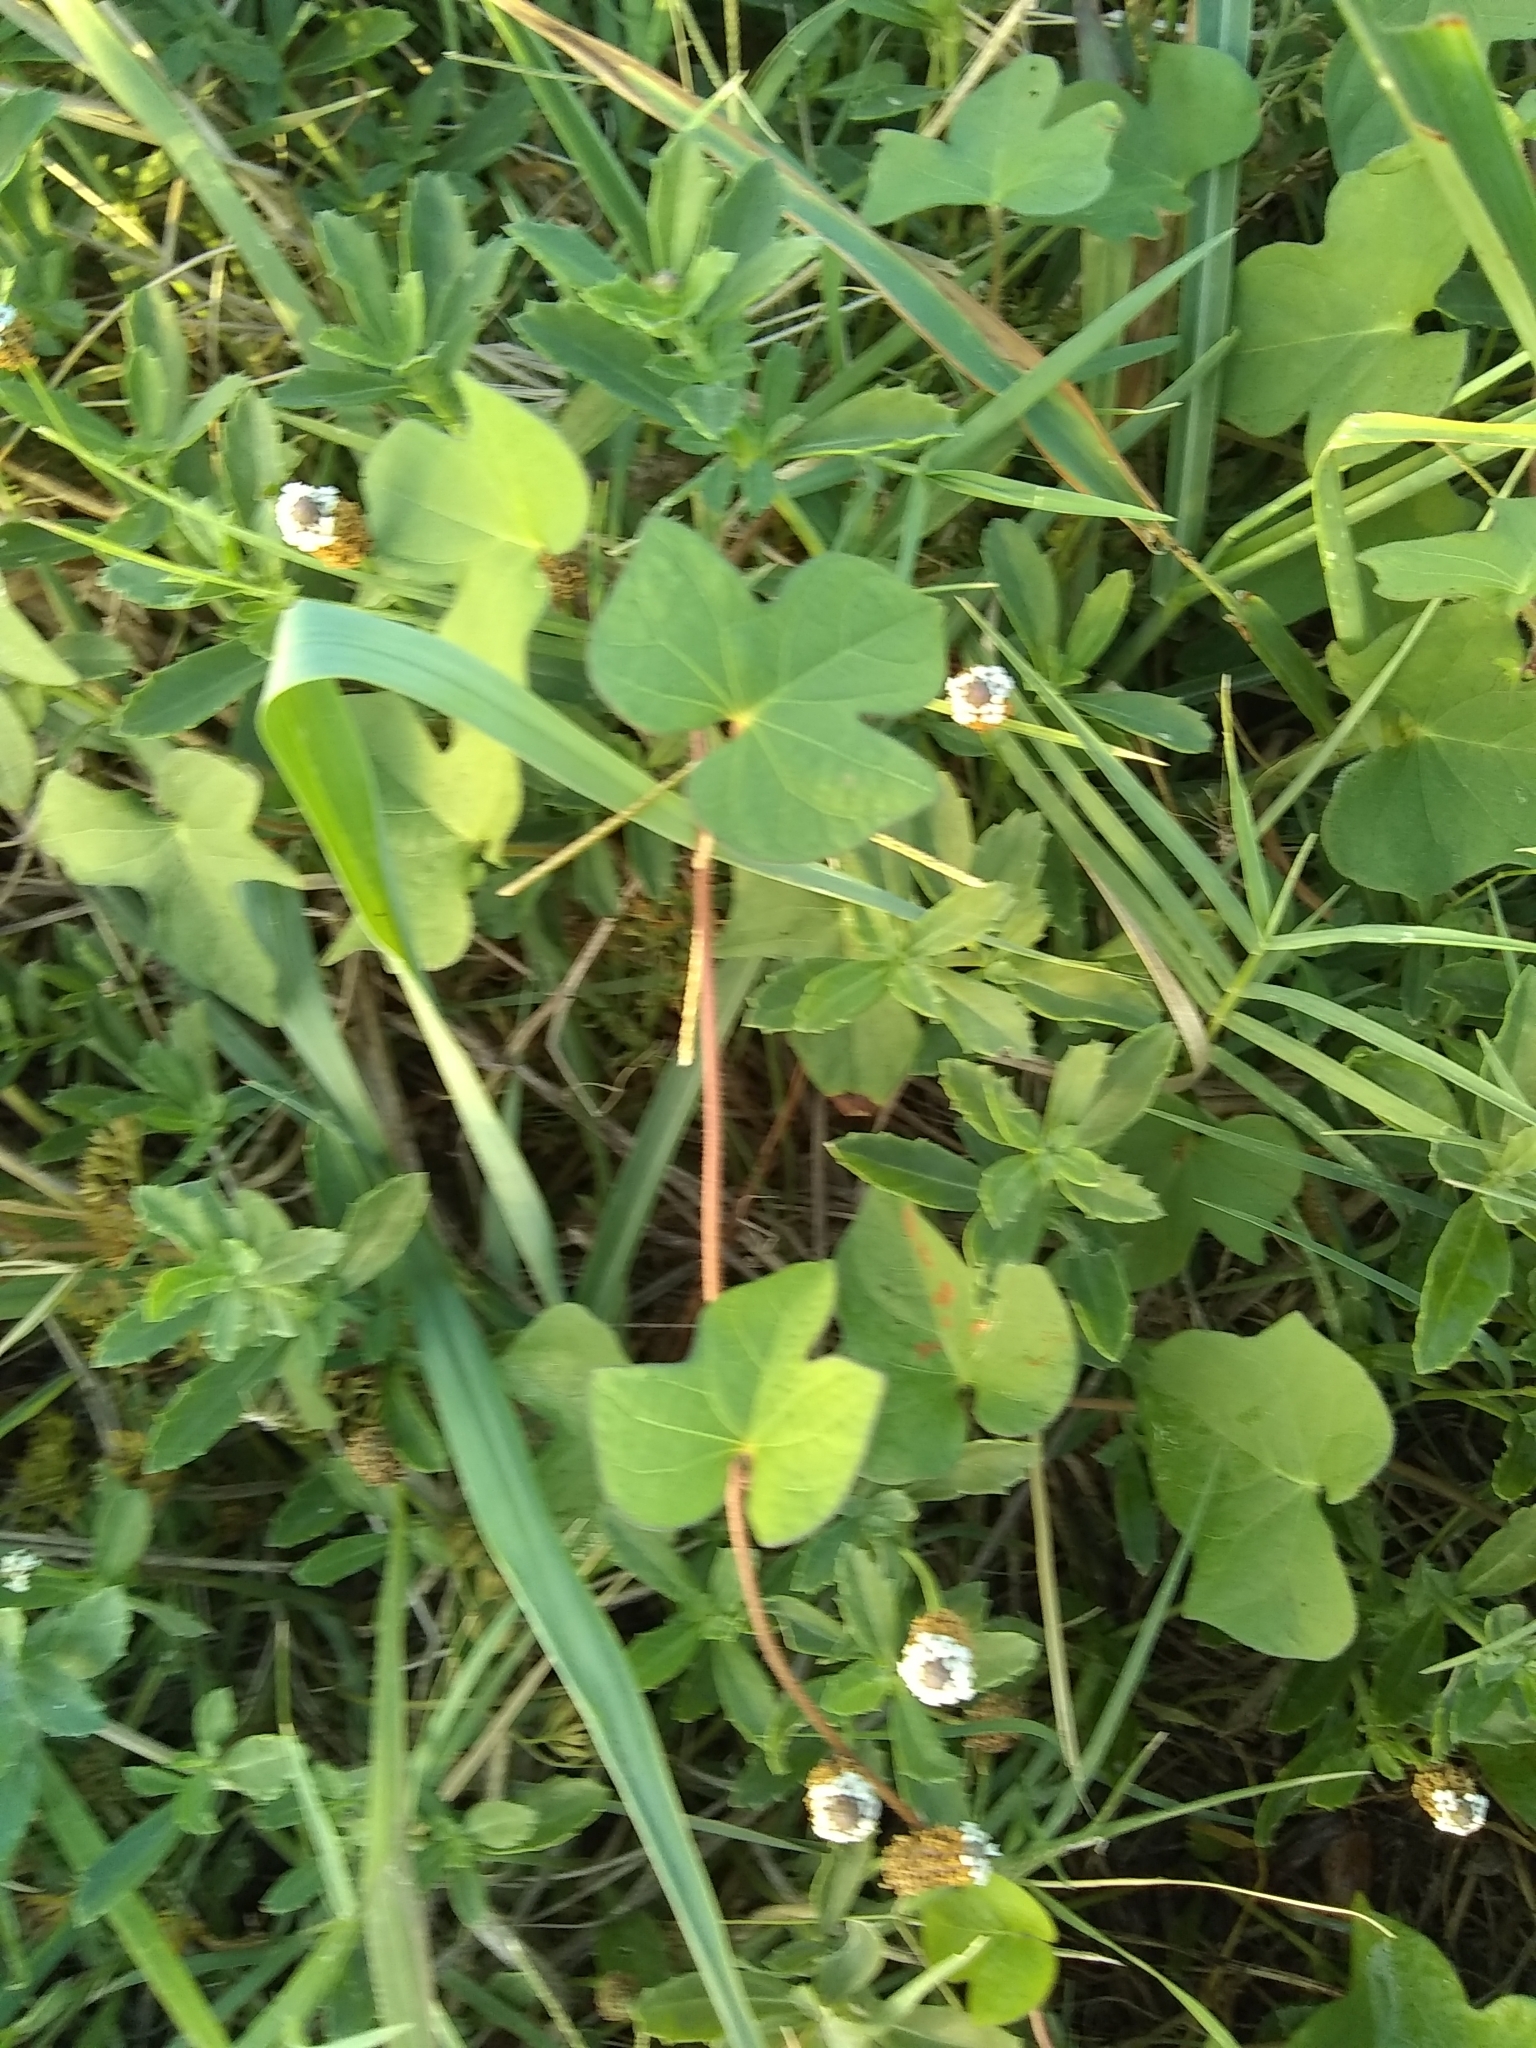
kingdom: Plantae
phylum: Tracheophyta
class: Magnoliopsida
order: Solanales
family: Convolvulaceae
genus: Ipomoea
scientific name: Ipomoea cordatotriloba
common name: Cotton morning glory
